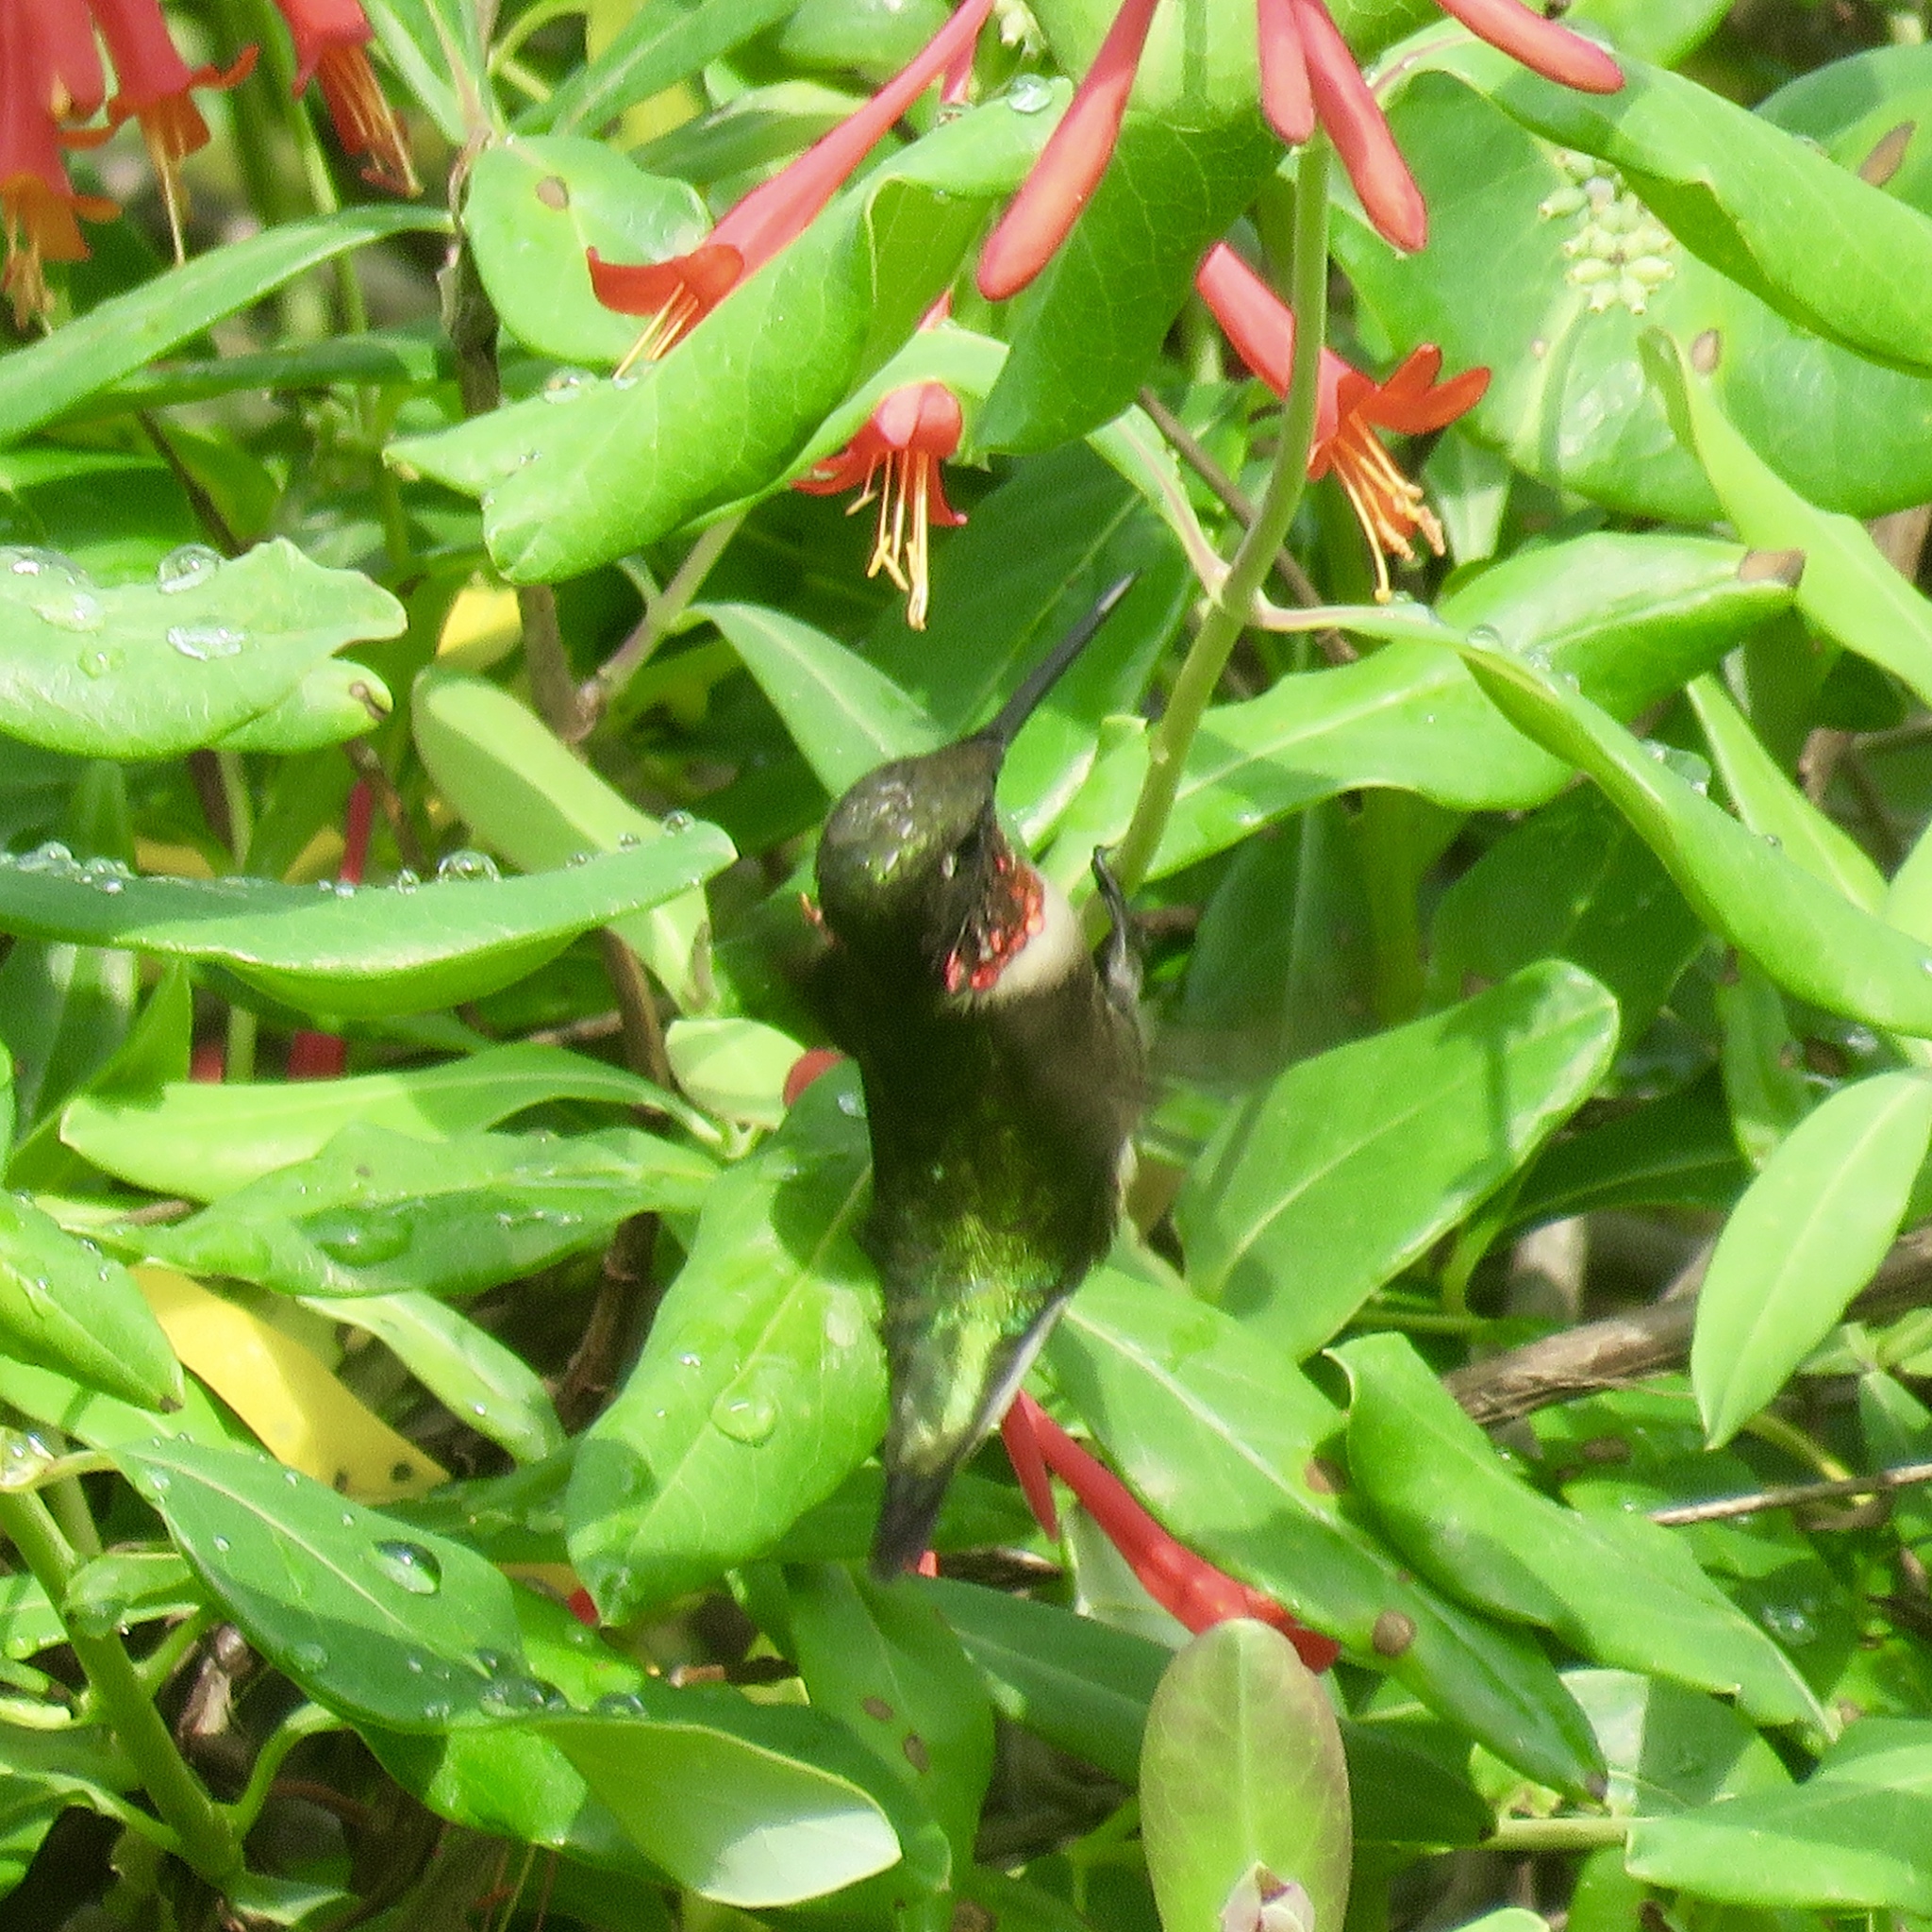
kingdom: Animalia
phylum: Chordata
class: Aves
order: Apodiformes
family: Trochilidae
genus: Archilochus
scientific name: Archilochus colubris
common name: Ruby-throated hummingbird
